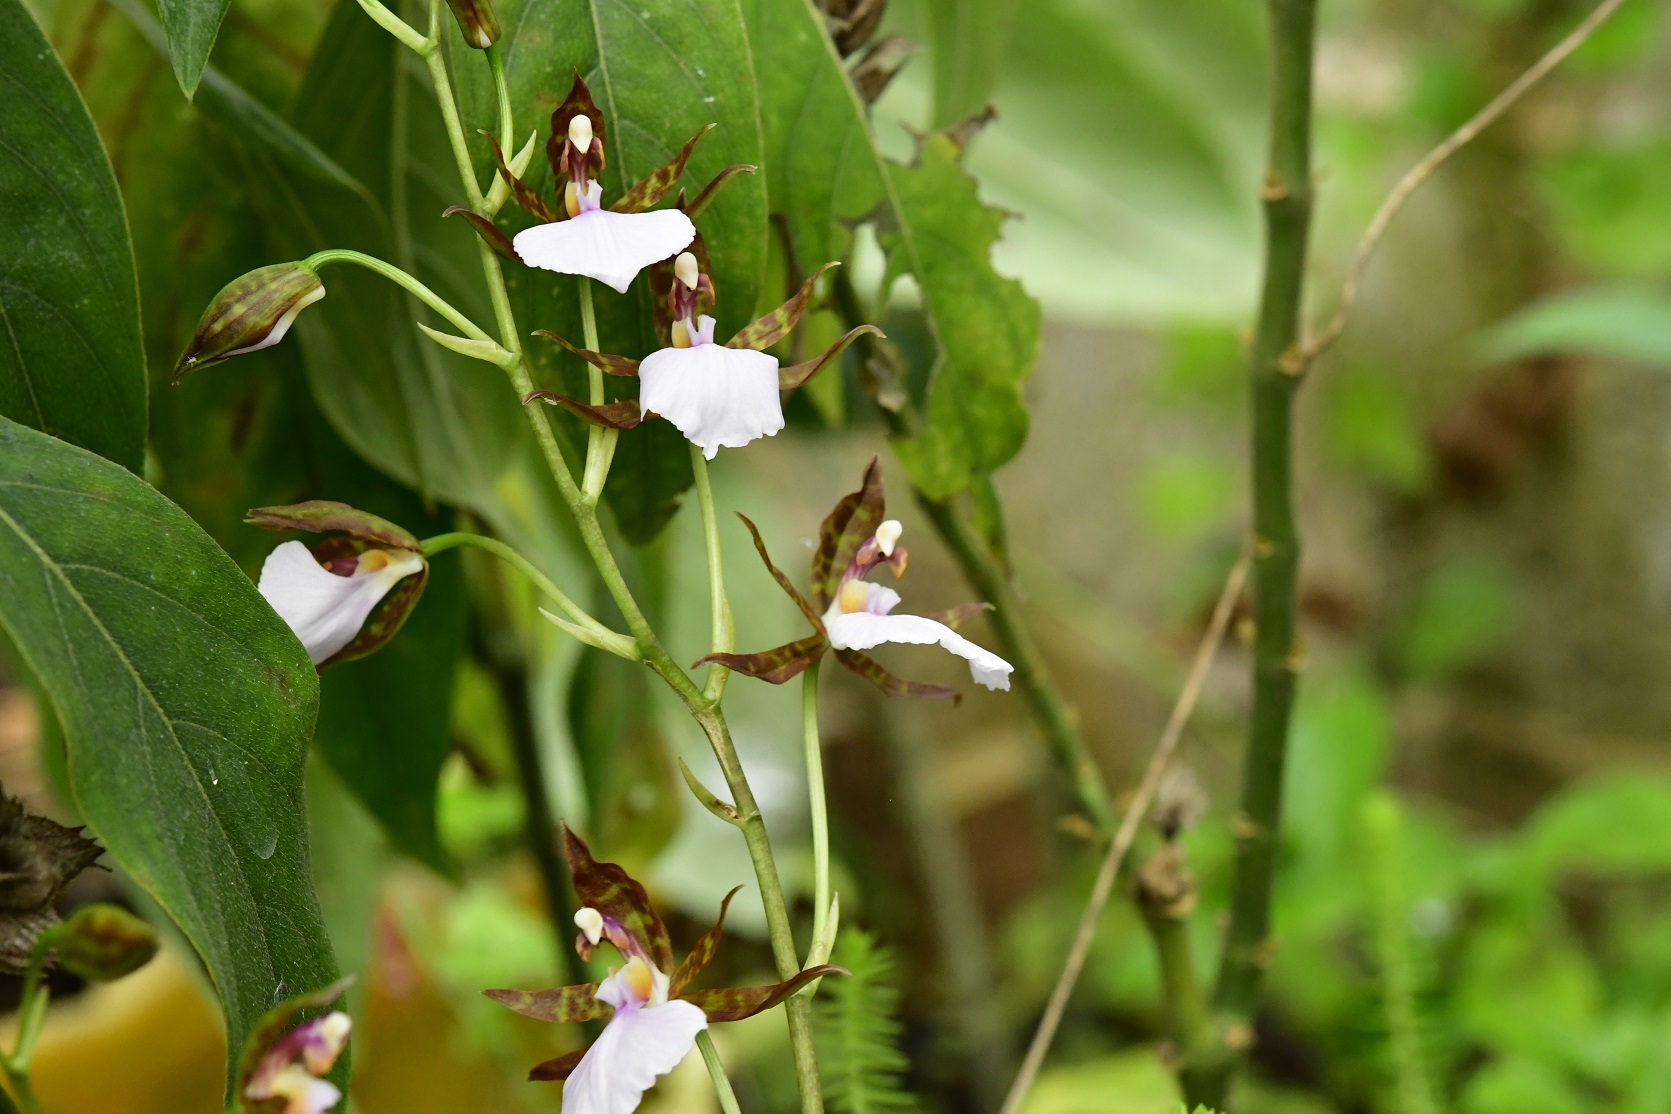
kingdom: Plantae
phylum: Tracheophyta
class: Liliopsida
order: Asparagales
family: Orchidaceae
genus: Rhynchostele
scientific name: Rhynchostele bictoniensis
